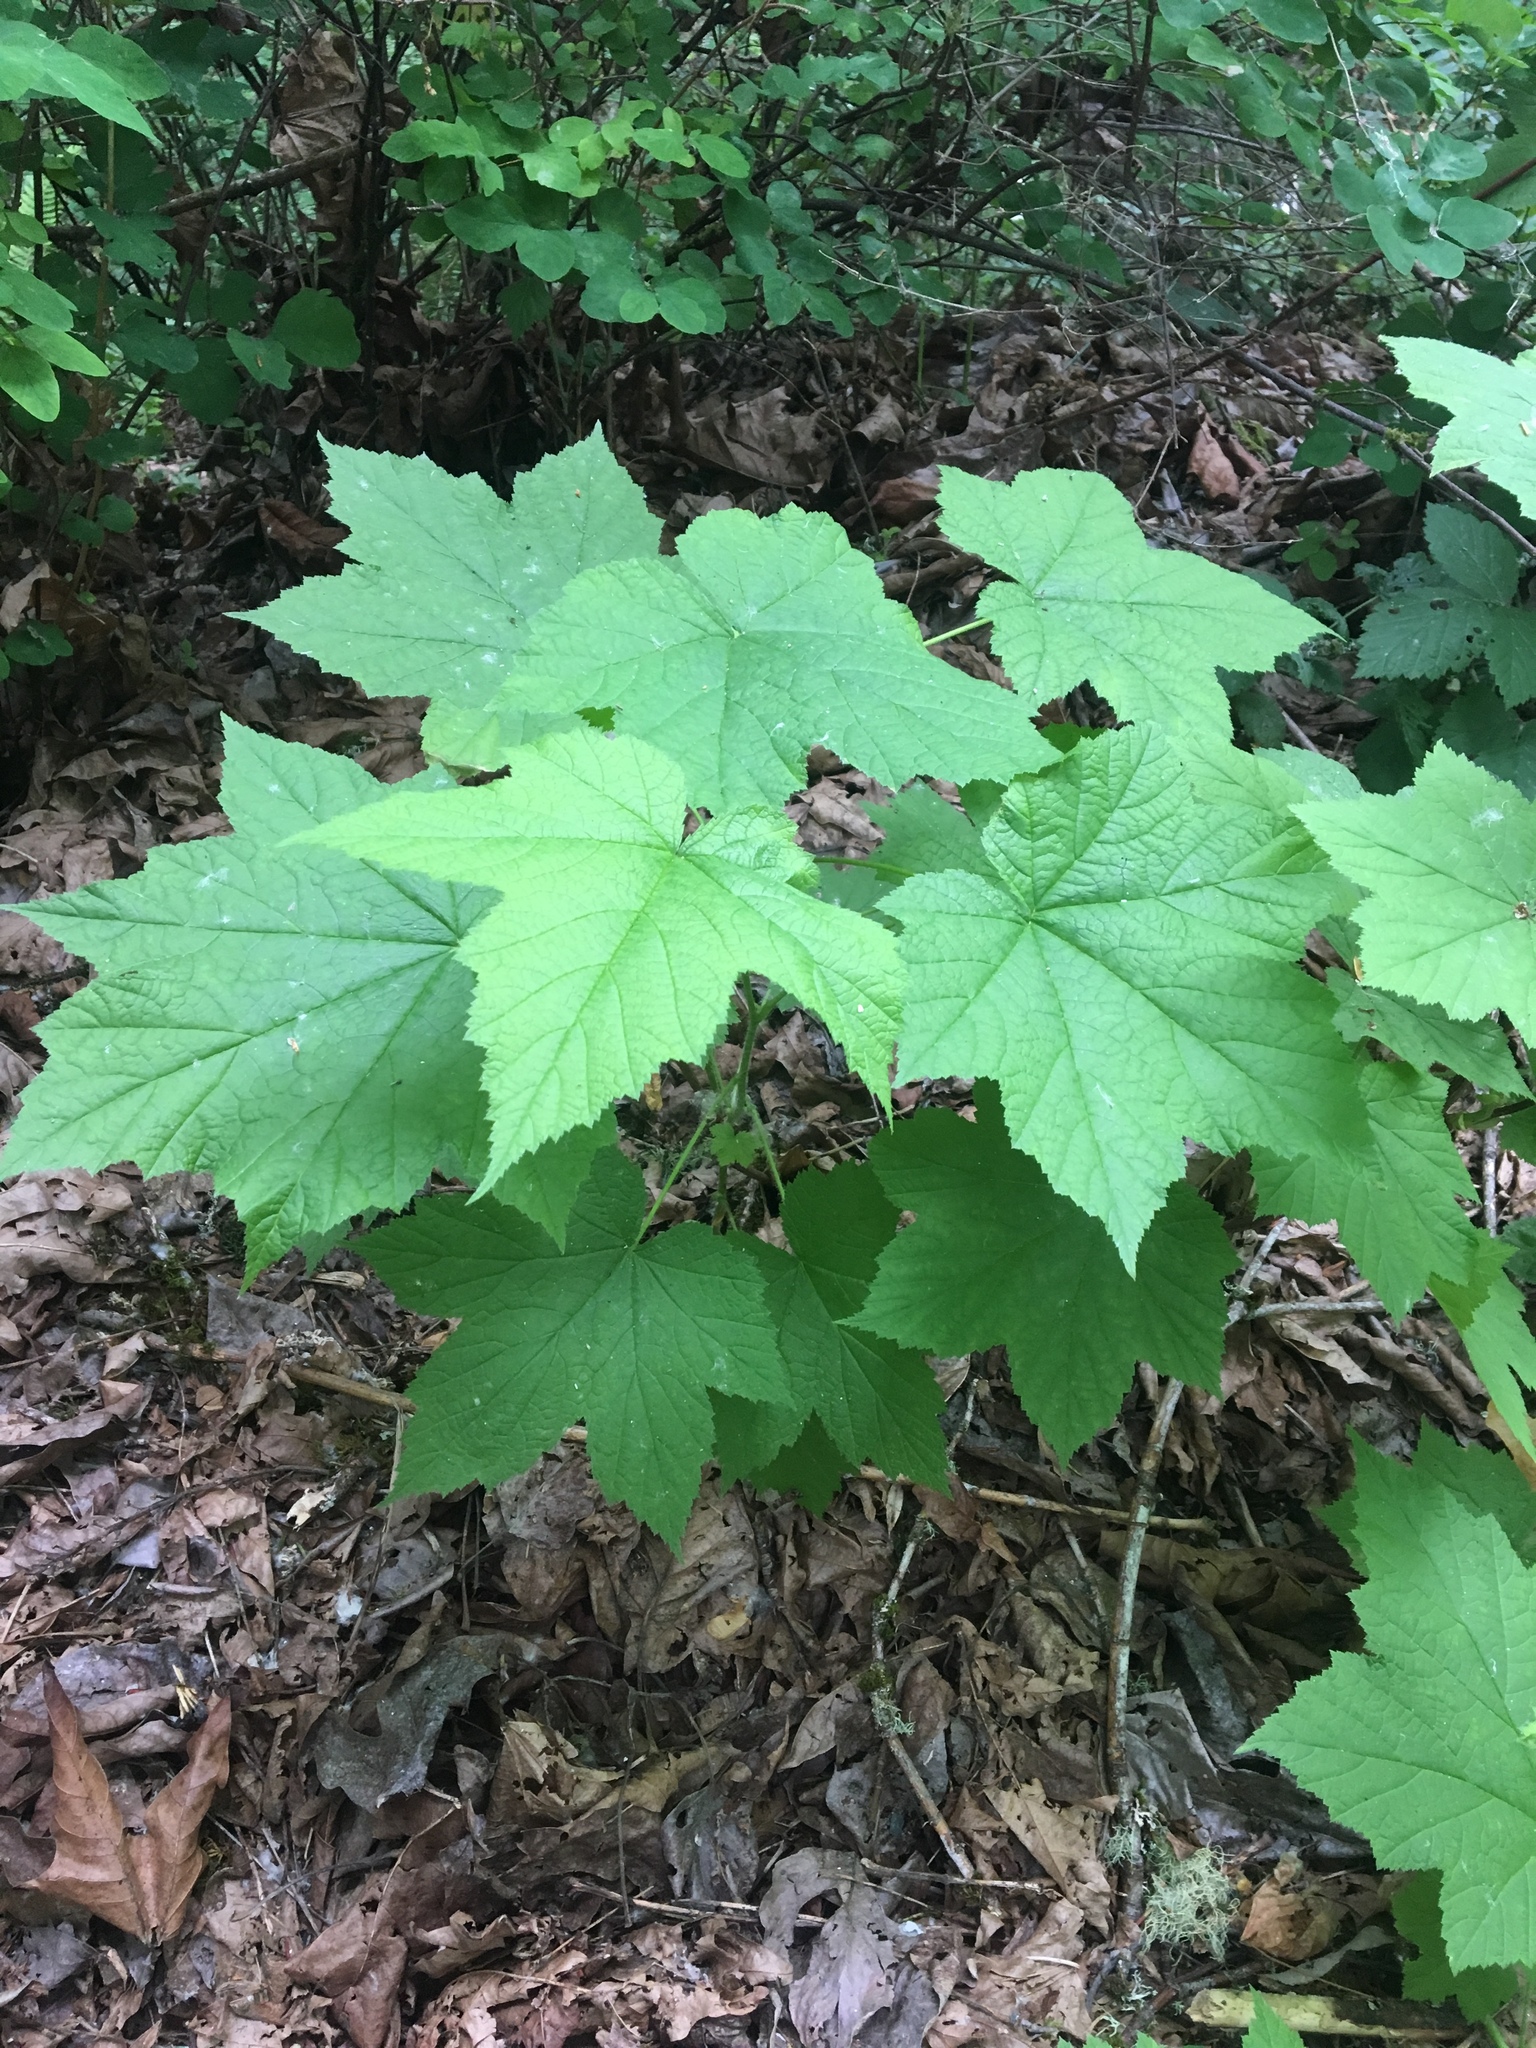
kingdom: Plantae
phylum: Tracheophyta
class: Magnoliopsida
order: Rosales
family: Rosaceae
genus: Rubus
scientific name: Rubus parviflorus
